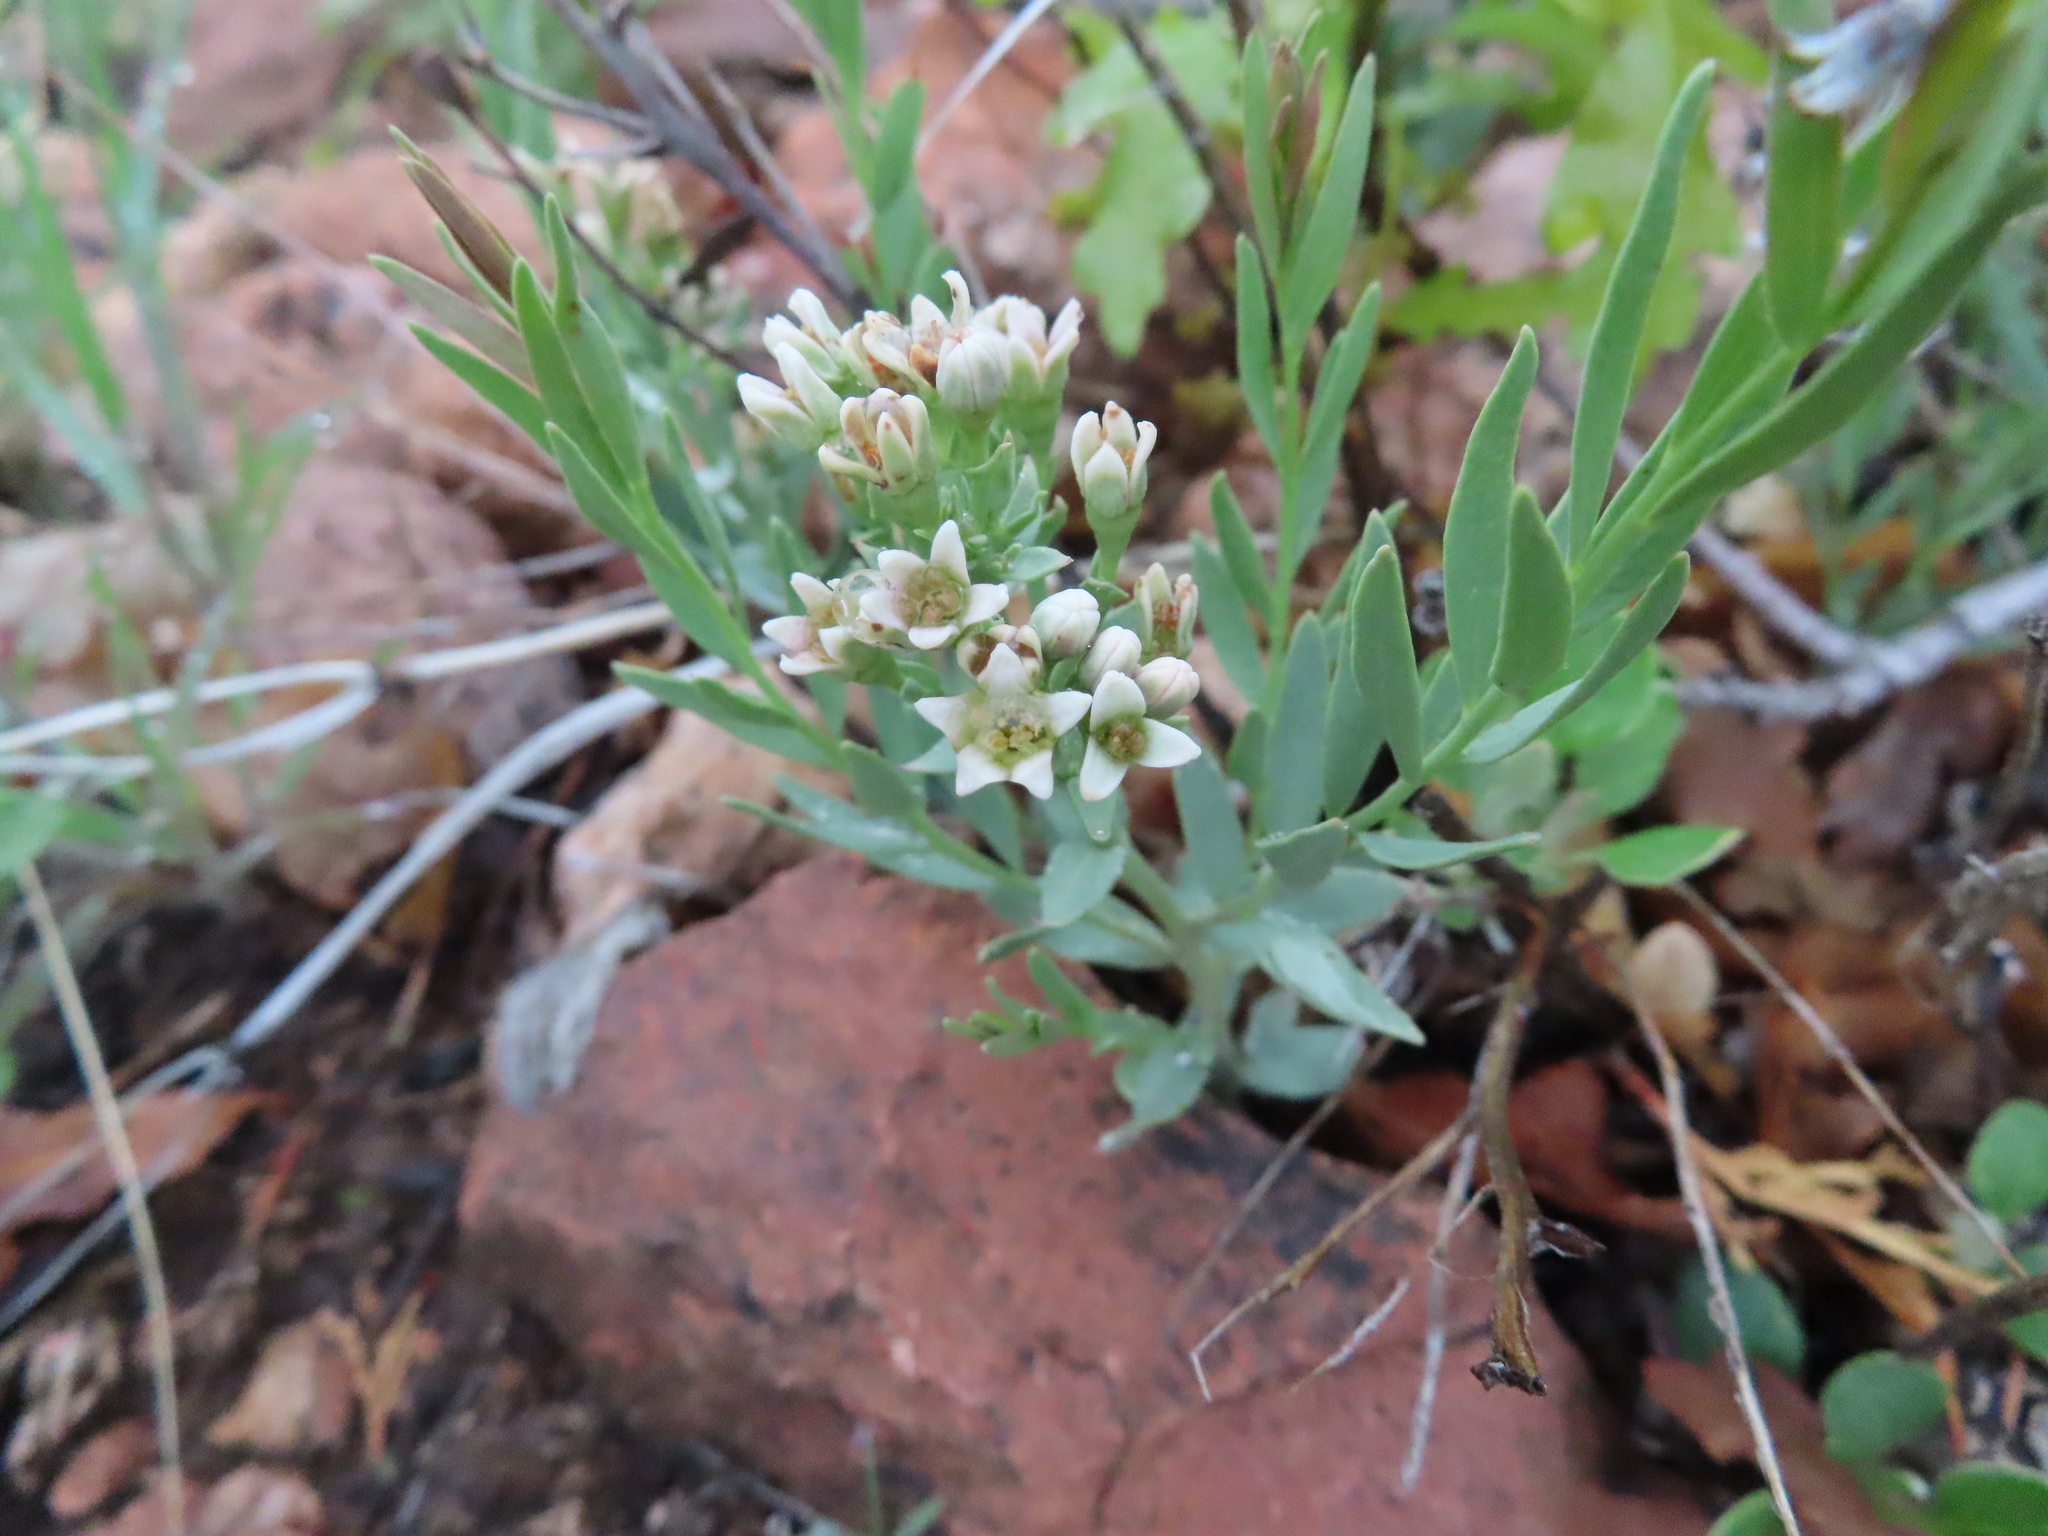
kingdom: Plantae
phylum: Tracheophyta
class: Magnoliopsida
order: Santalales
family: Comandraceae
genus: Comandra
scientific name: Comandra umbellata
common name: Bastard toadflax
